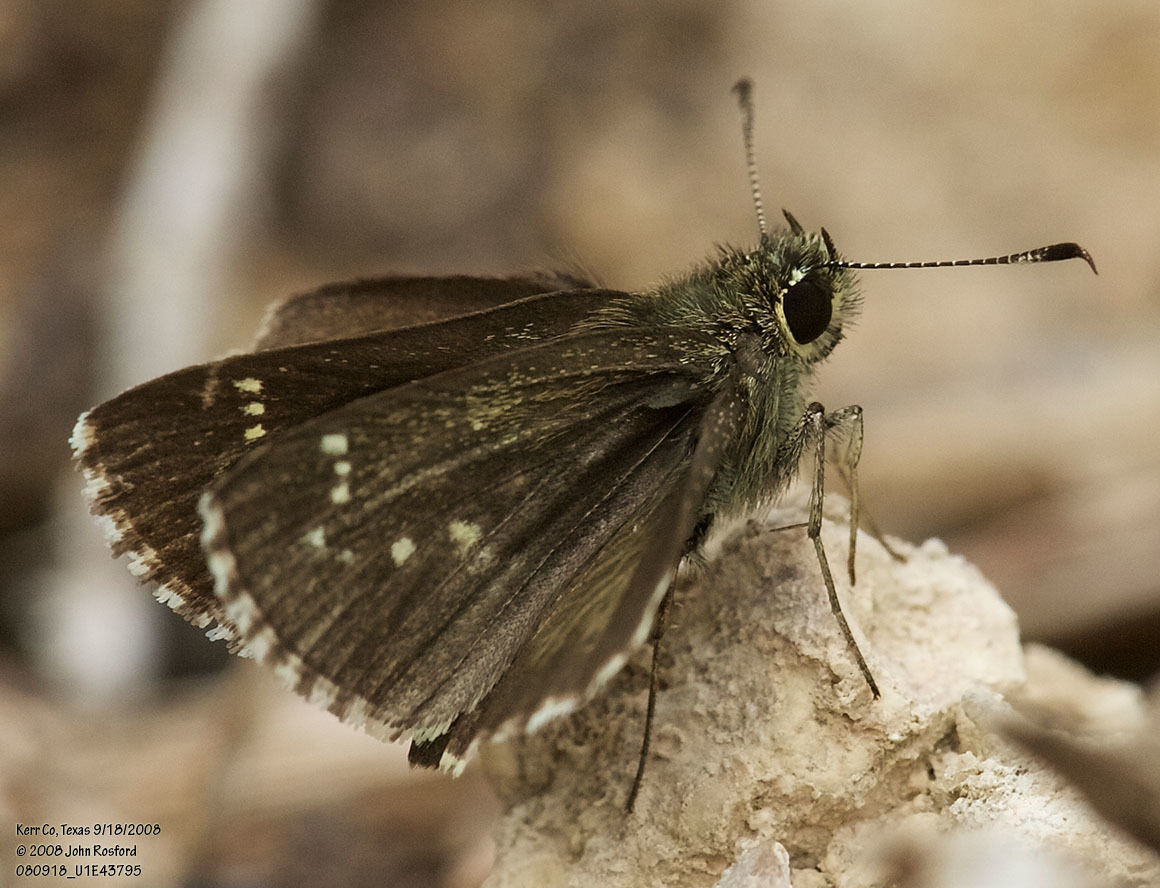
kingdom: Animalia
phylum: Arthropoda
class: Insecta
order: Lepidoptera
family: Hesperiidae
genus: Mastor
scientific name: Mastor celia
